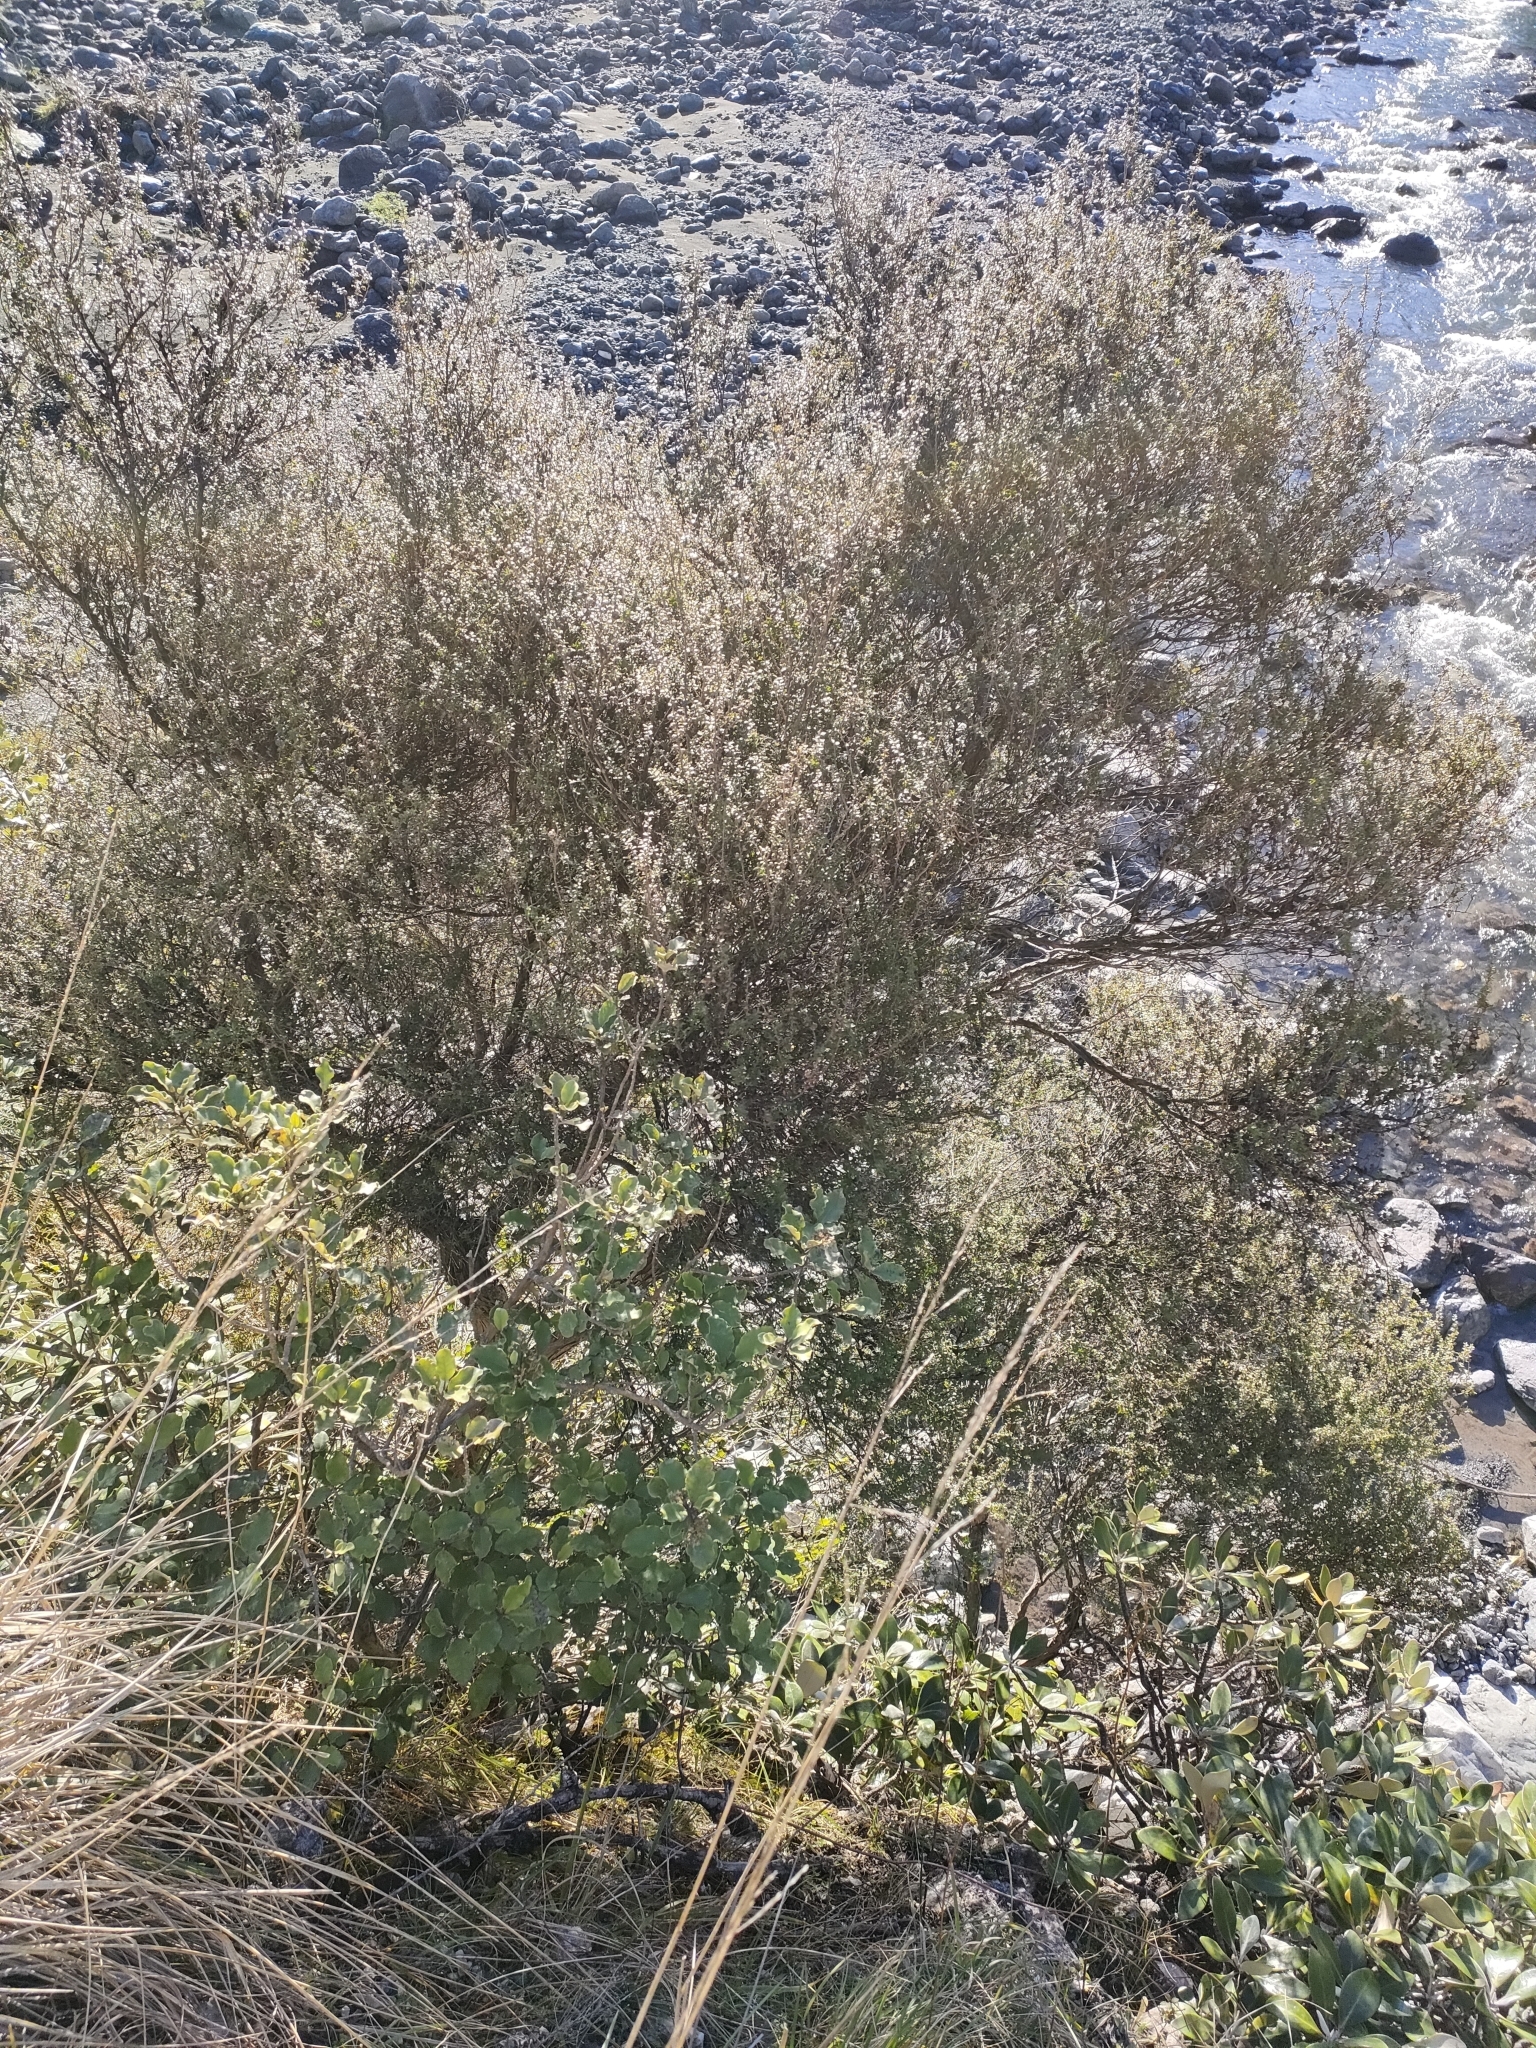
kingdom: Plantae
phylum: Tracheophyta
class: Magnoliopsida
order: Myrtales
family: Myrtaceae
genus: Leptospermum
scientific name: Leptospermum scoparium
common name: Broom tea-tree
